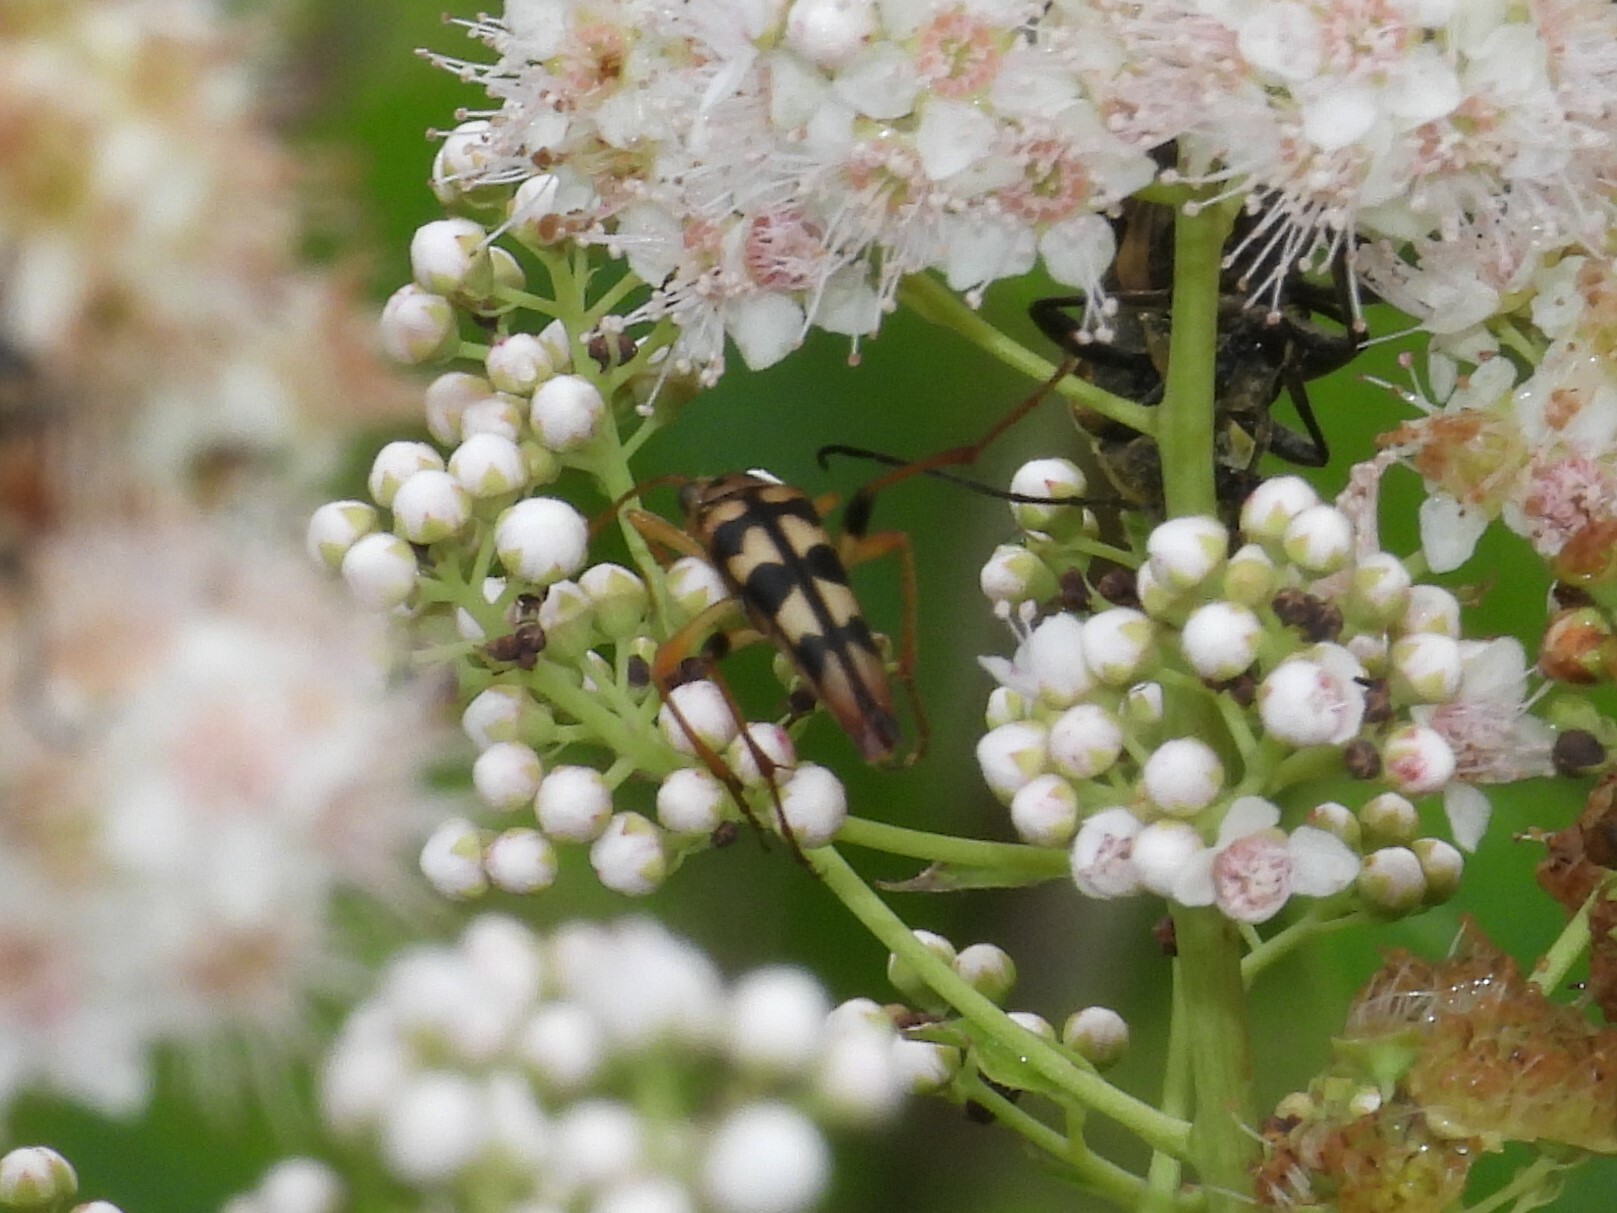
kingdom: Animalia
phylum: Arthropoda
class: Insecta
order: Coleoptera
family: Cerambycidae
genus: Strangalia
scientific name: Strangalia luteicornis
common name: Yellow-horned flower longhorn beetle
